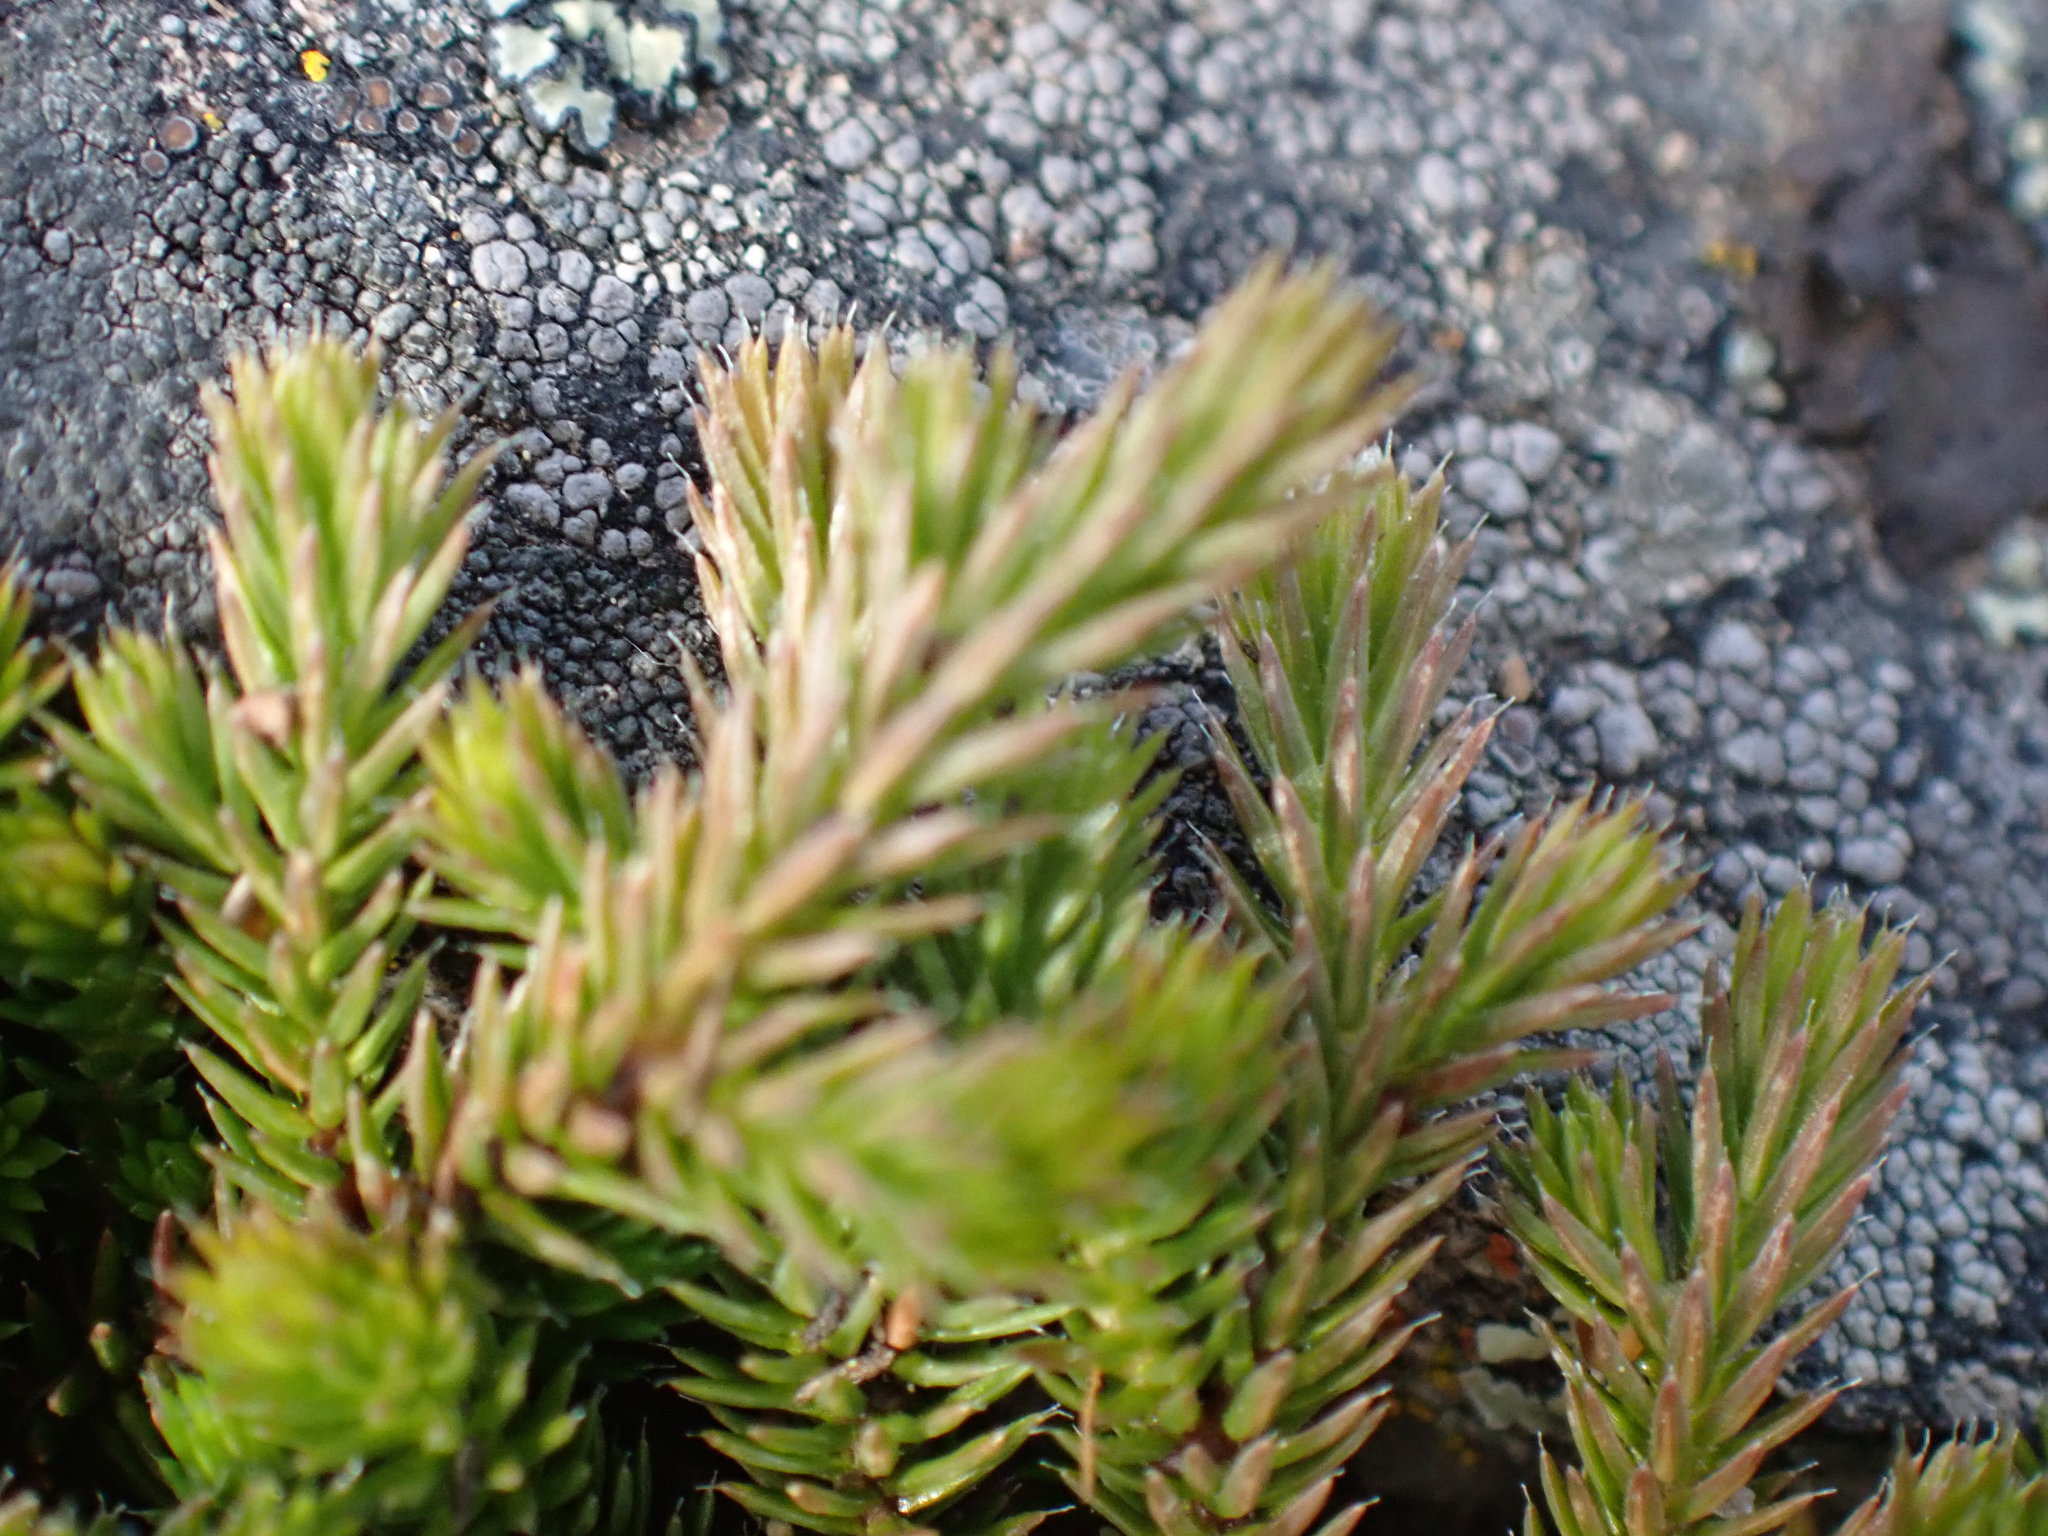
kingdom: Plantae
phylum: Tracheophyta
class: Lycopodiopsida
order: Selaginellales
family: Selaginellaceae
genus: Selaginella
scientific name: Selaginella wallacei
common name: Wallace's selaginella
